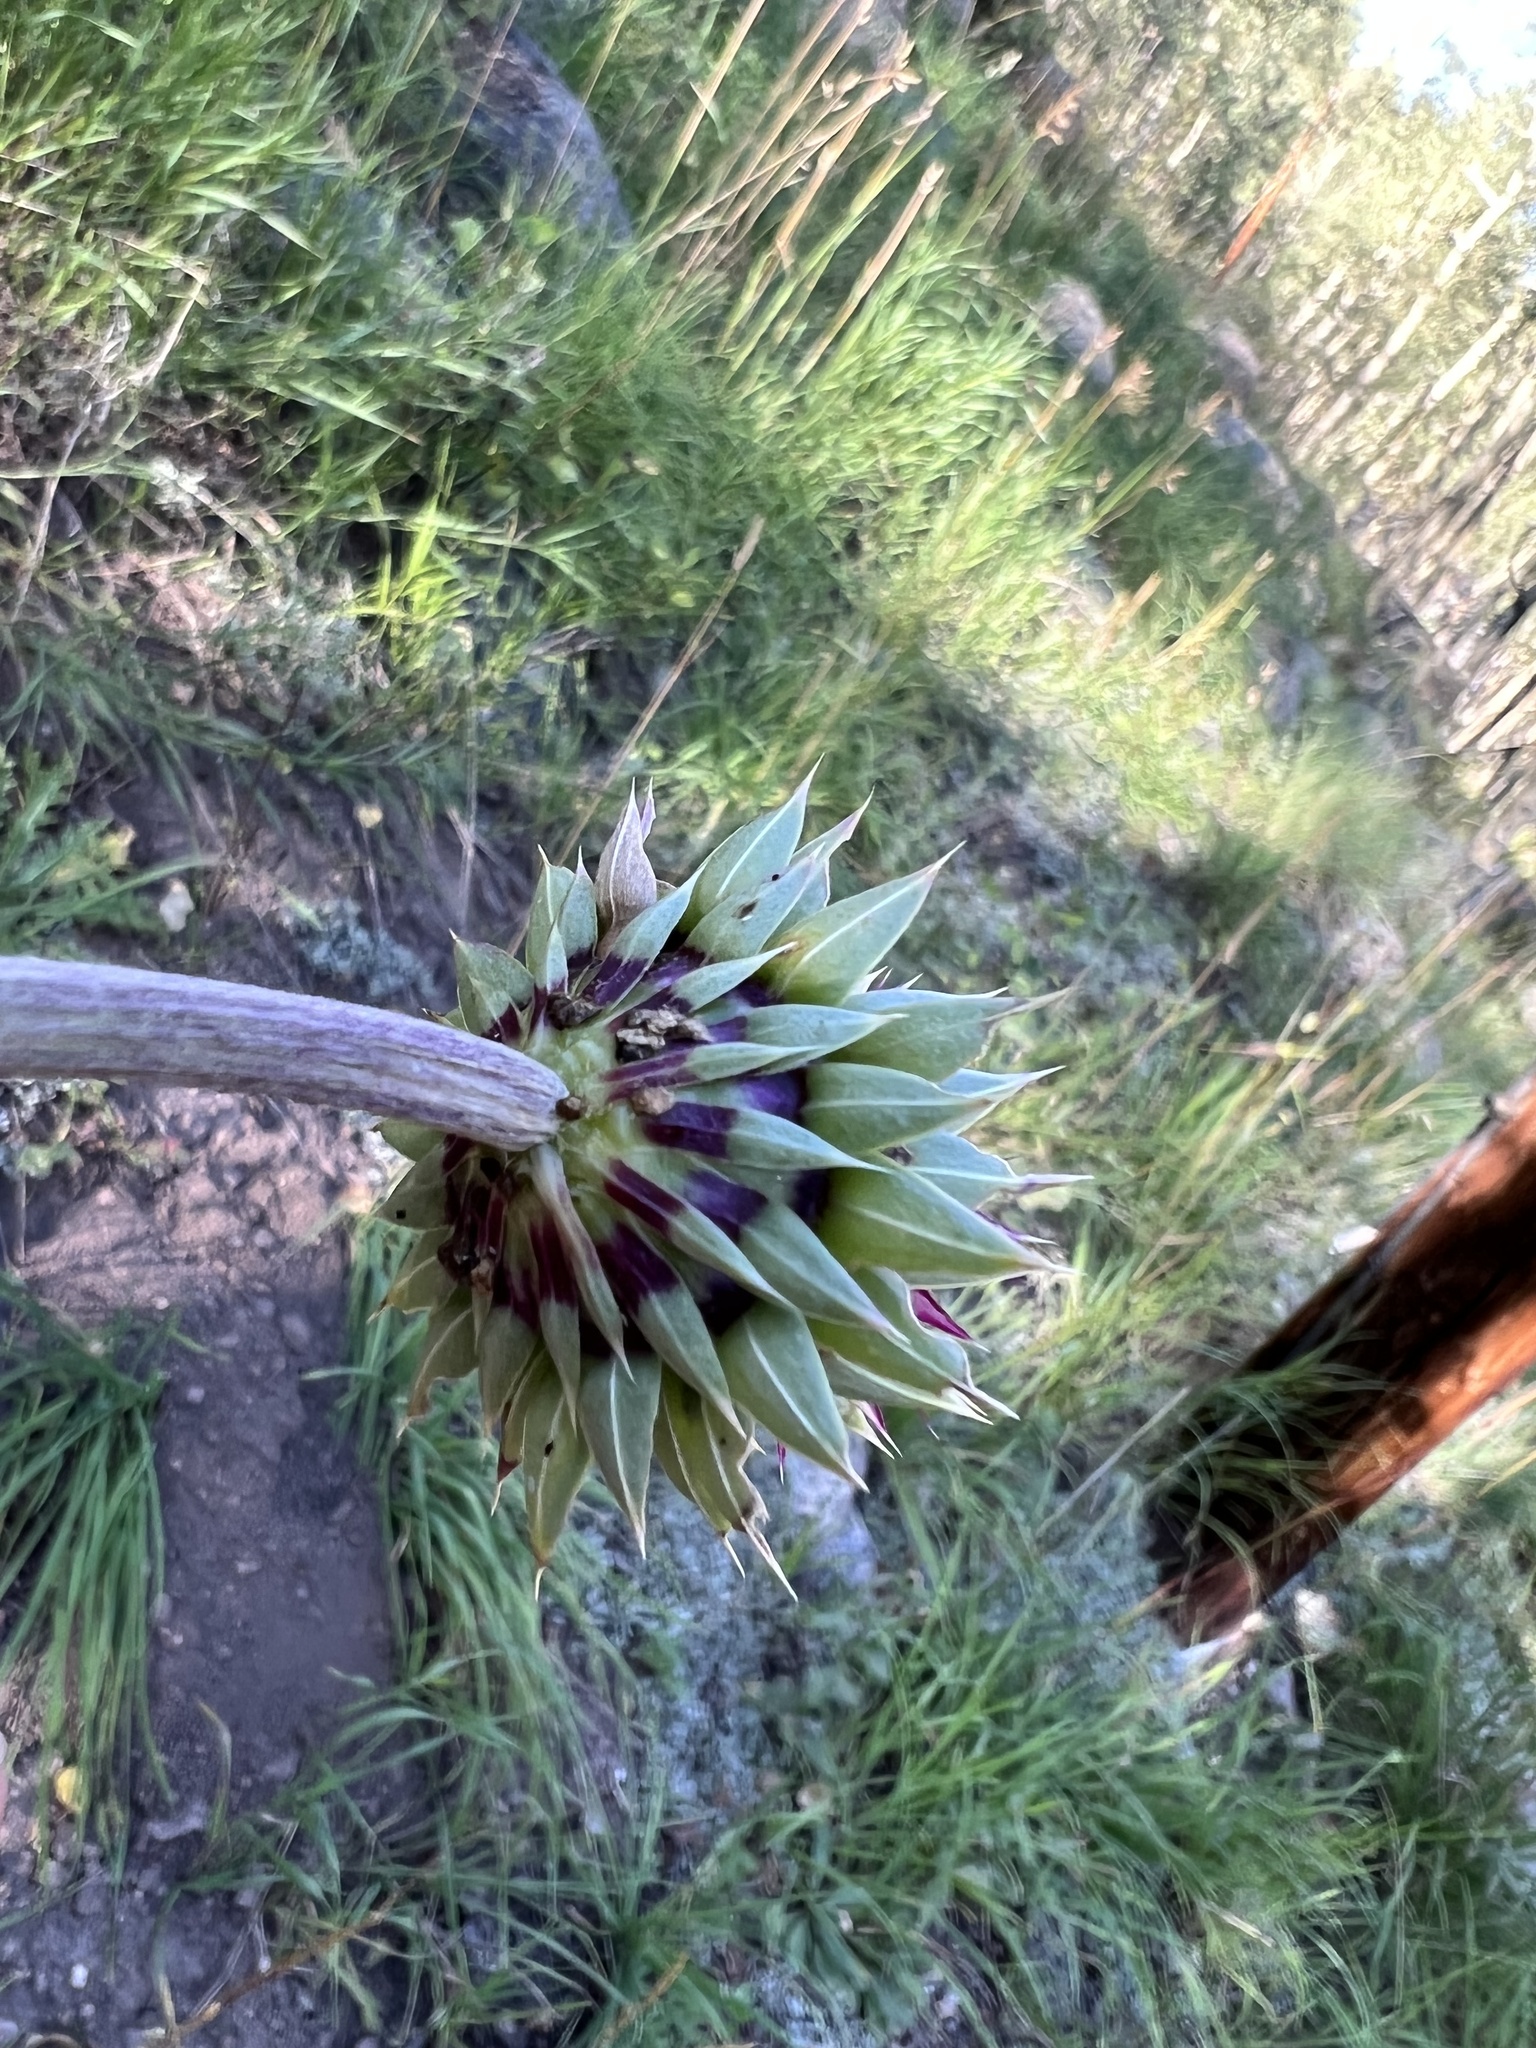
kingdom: Plantae
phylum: Tracheophyta
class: Magnoliopsida
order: Asterales
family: Asteraceae
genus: Carduus
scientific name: Carduus nutans
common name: Musk thistle
